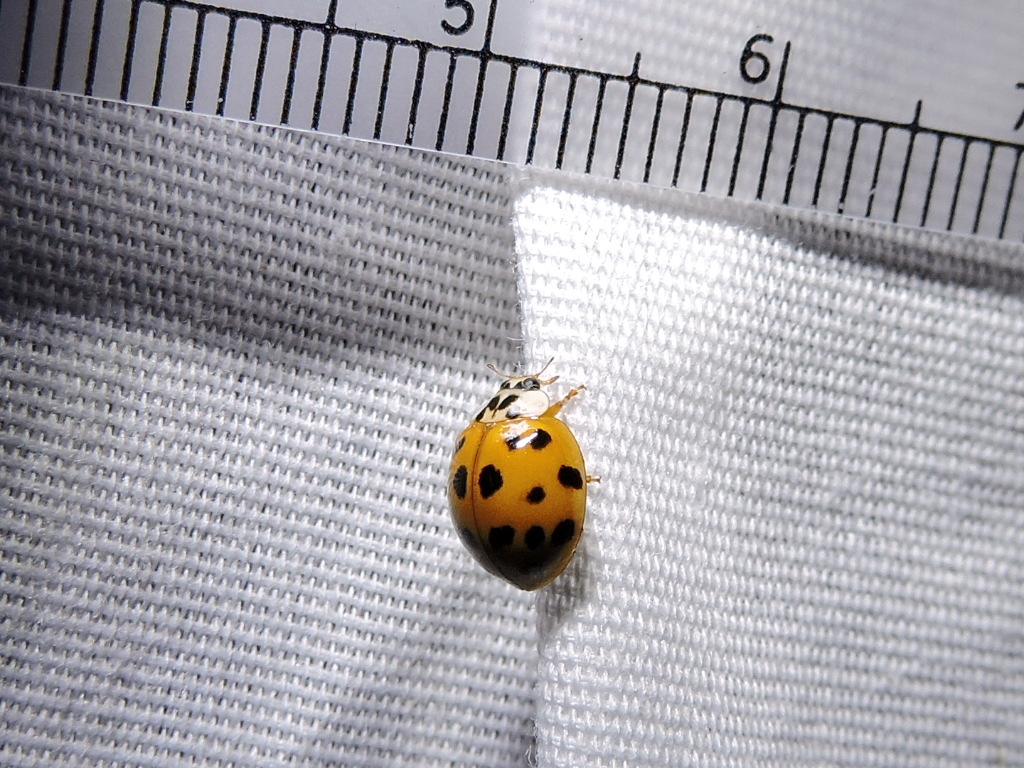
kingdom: Animalia
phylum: Arthropoda
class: Insecta
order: Coleoptera
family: Coccinellidae
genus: Harmonia
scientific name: Harmonia axyridis
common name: Harlequin ladybird
